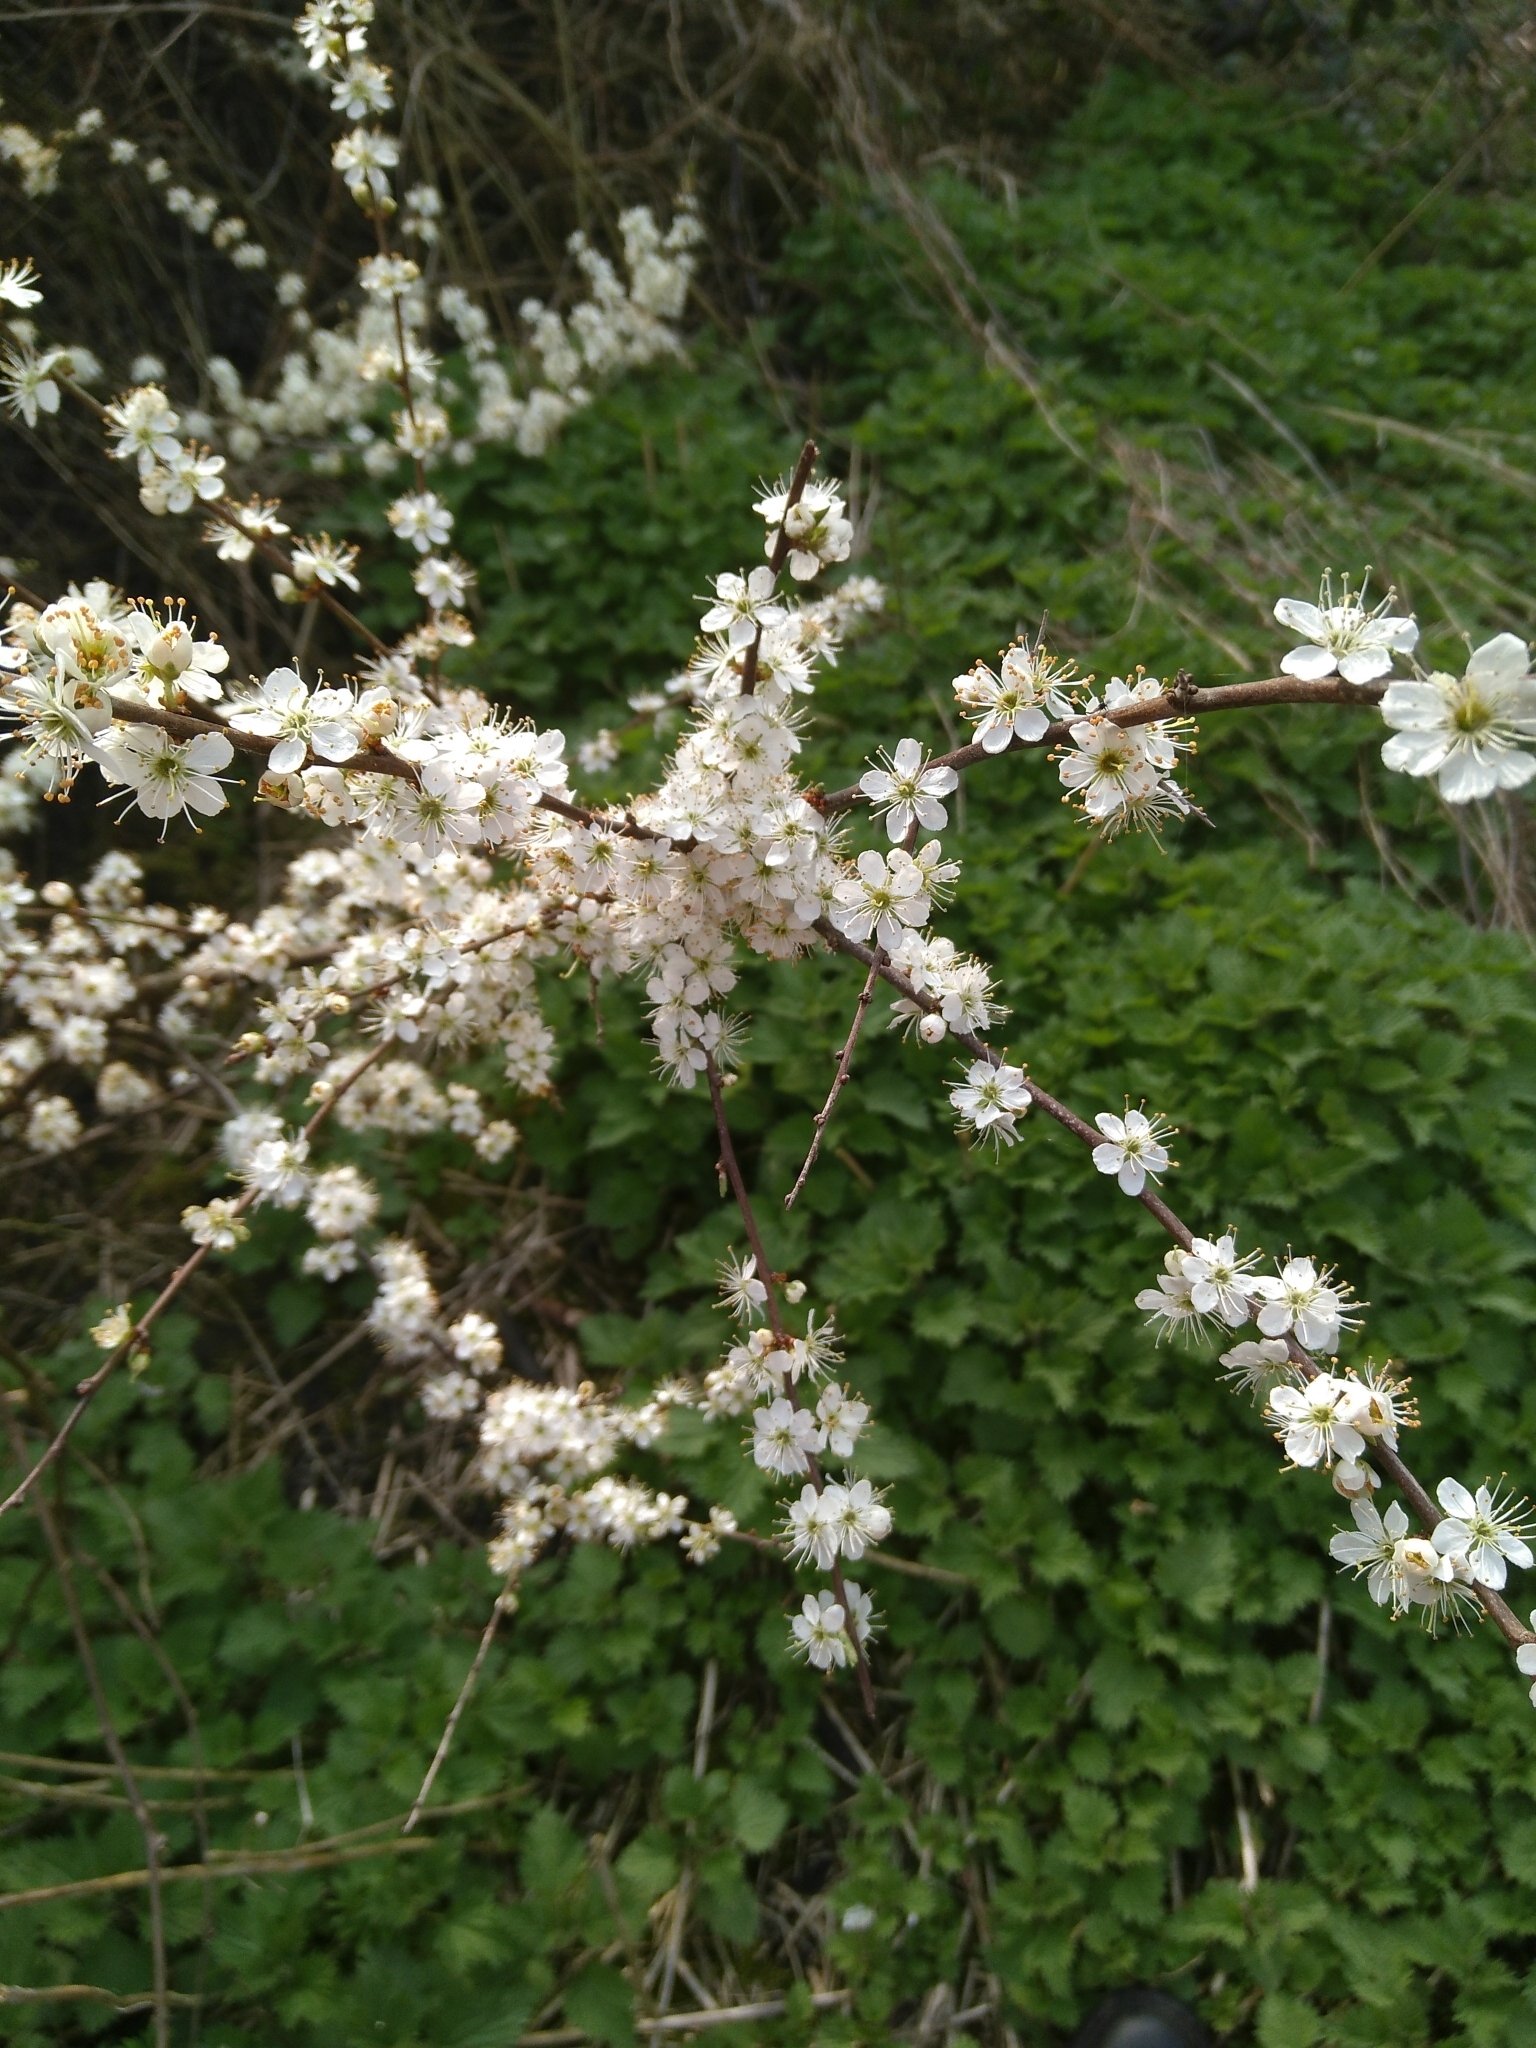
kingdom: Plantae
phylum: Tracheophyta
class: Magnoliopsida
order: Rosales
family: Rosaceae
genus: Prunus
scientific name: Prunus spinosa
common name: Blackthorn
